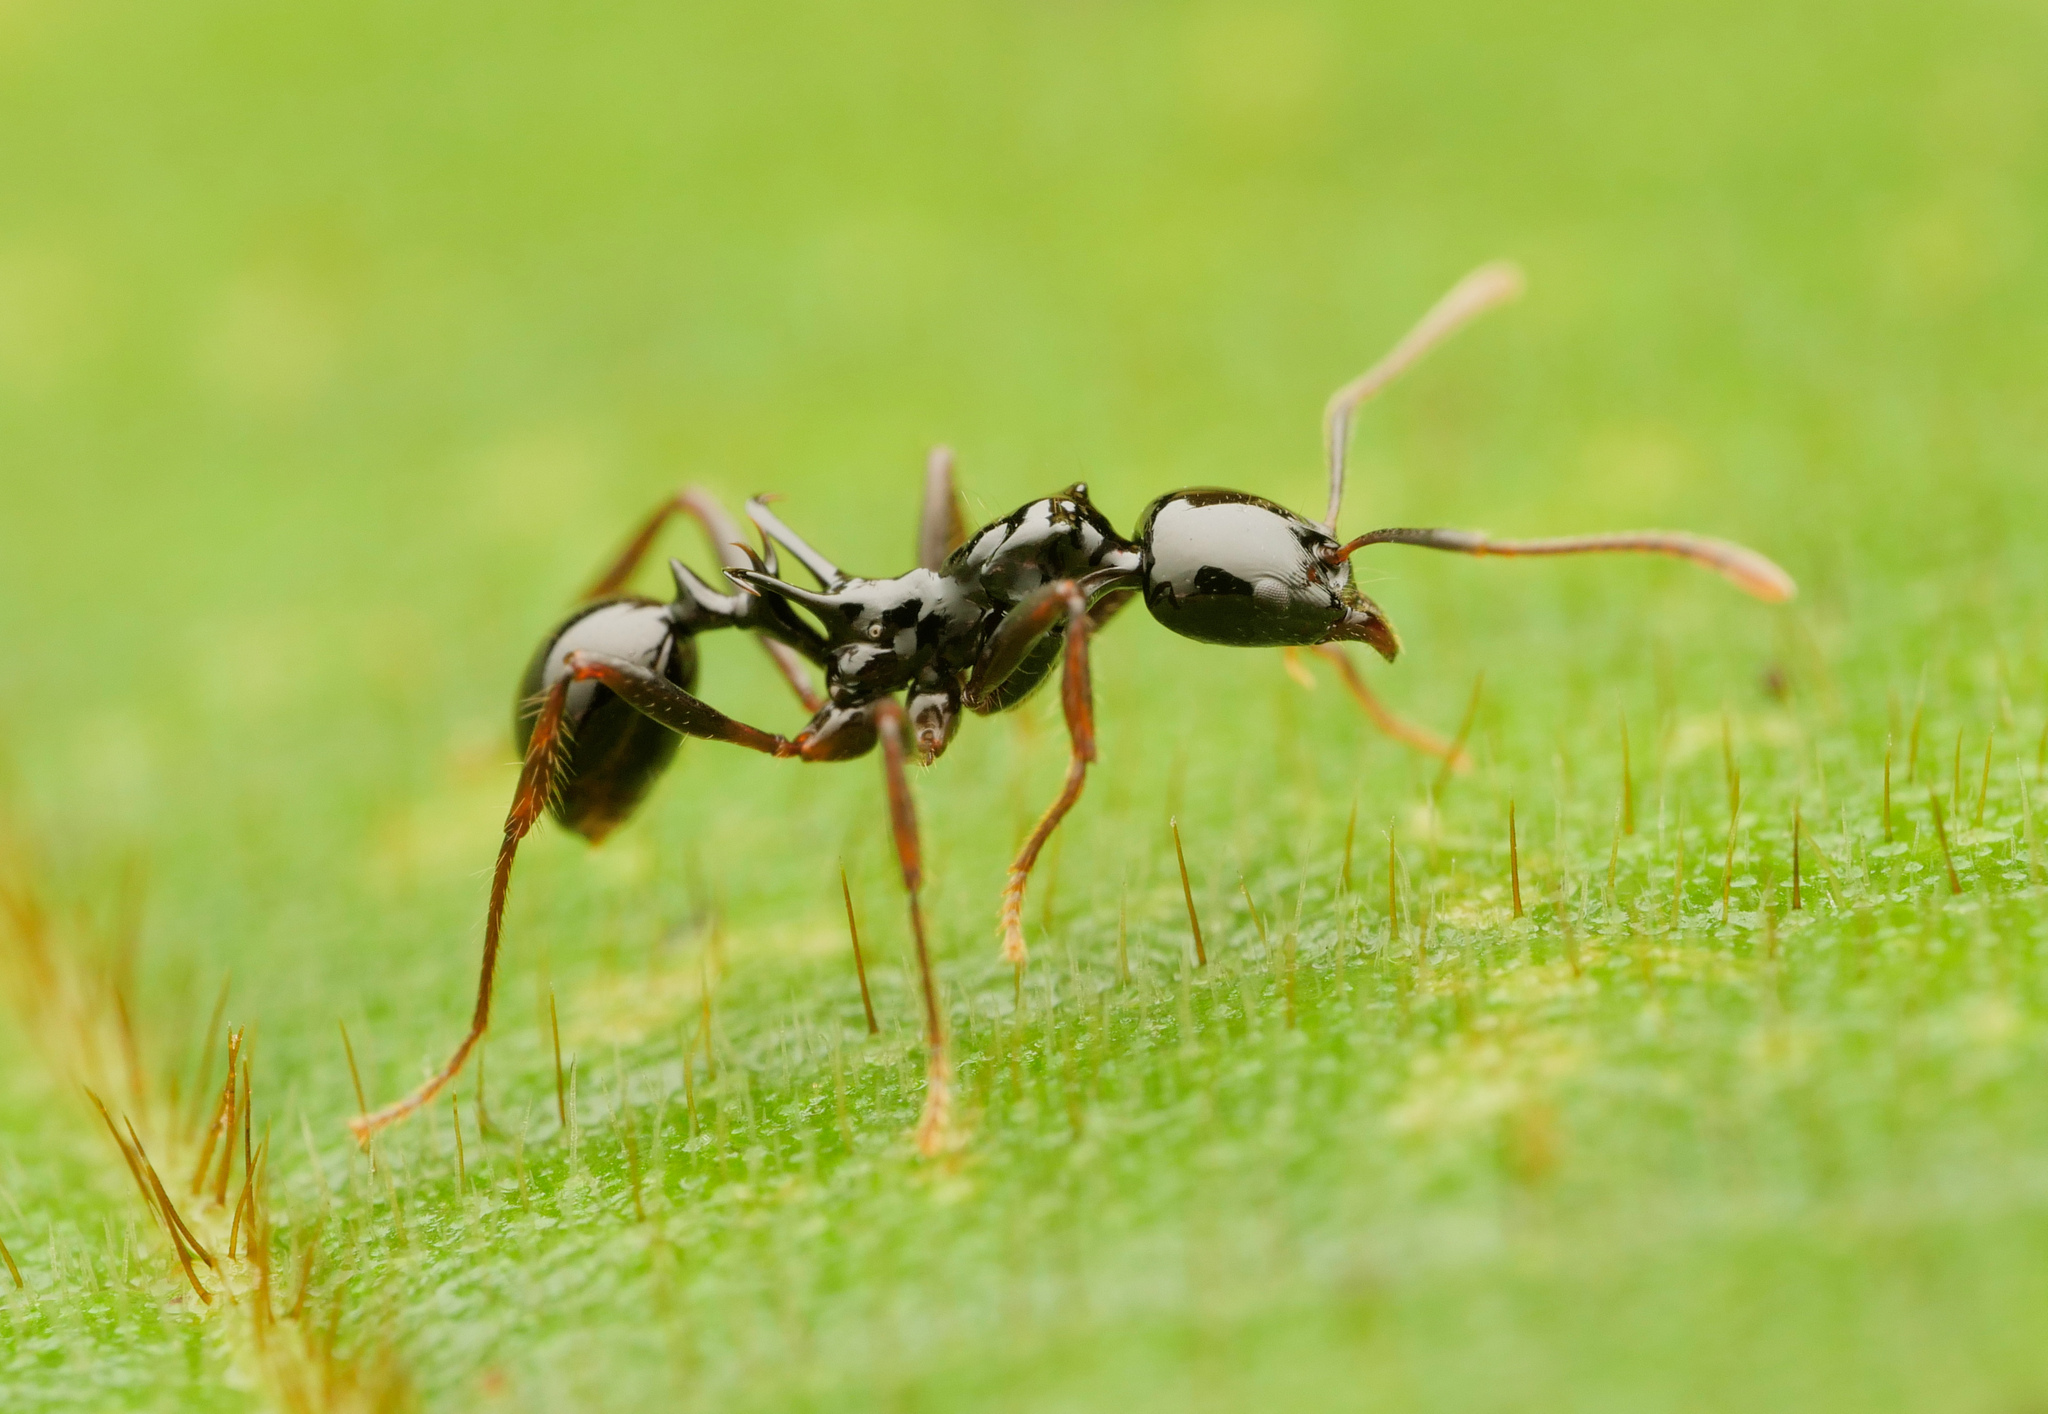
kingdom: Animalia
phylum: Arthropoda
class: Insecta
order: Hymenoptera
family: Formicidae
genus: Ancyridris
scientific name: Ancyridris polyrhachioides
